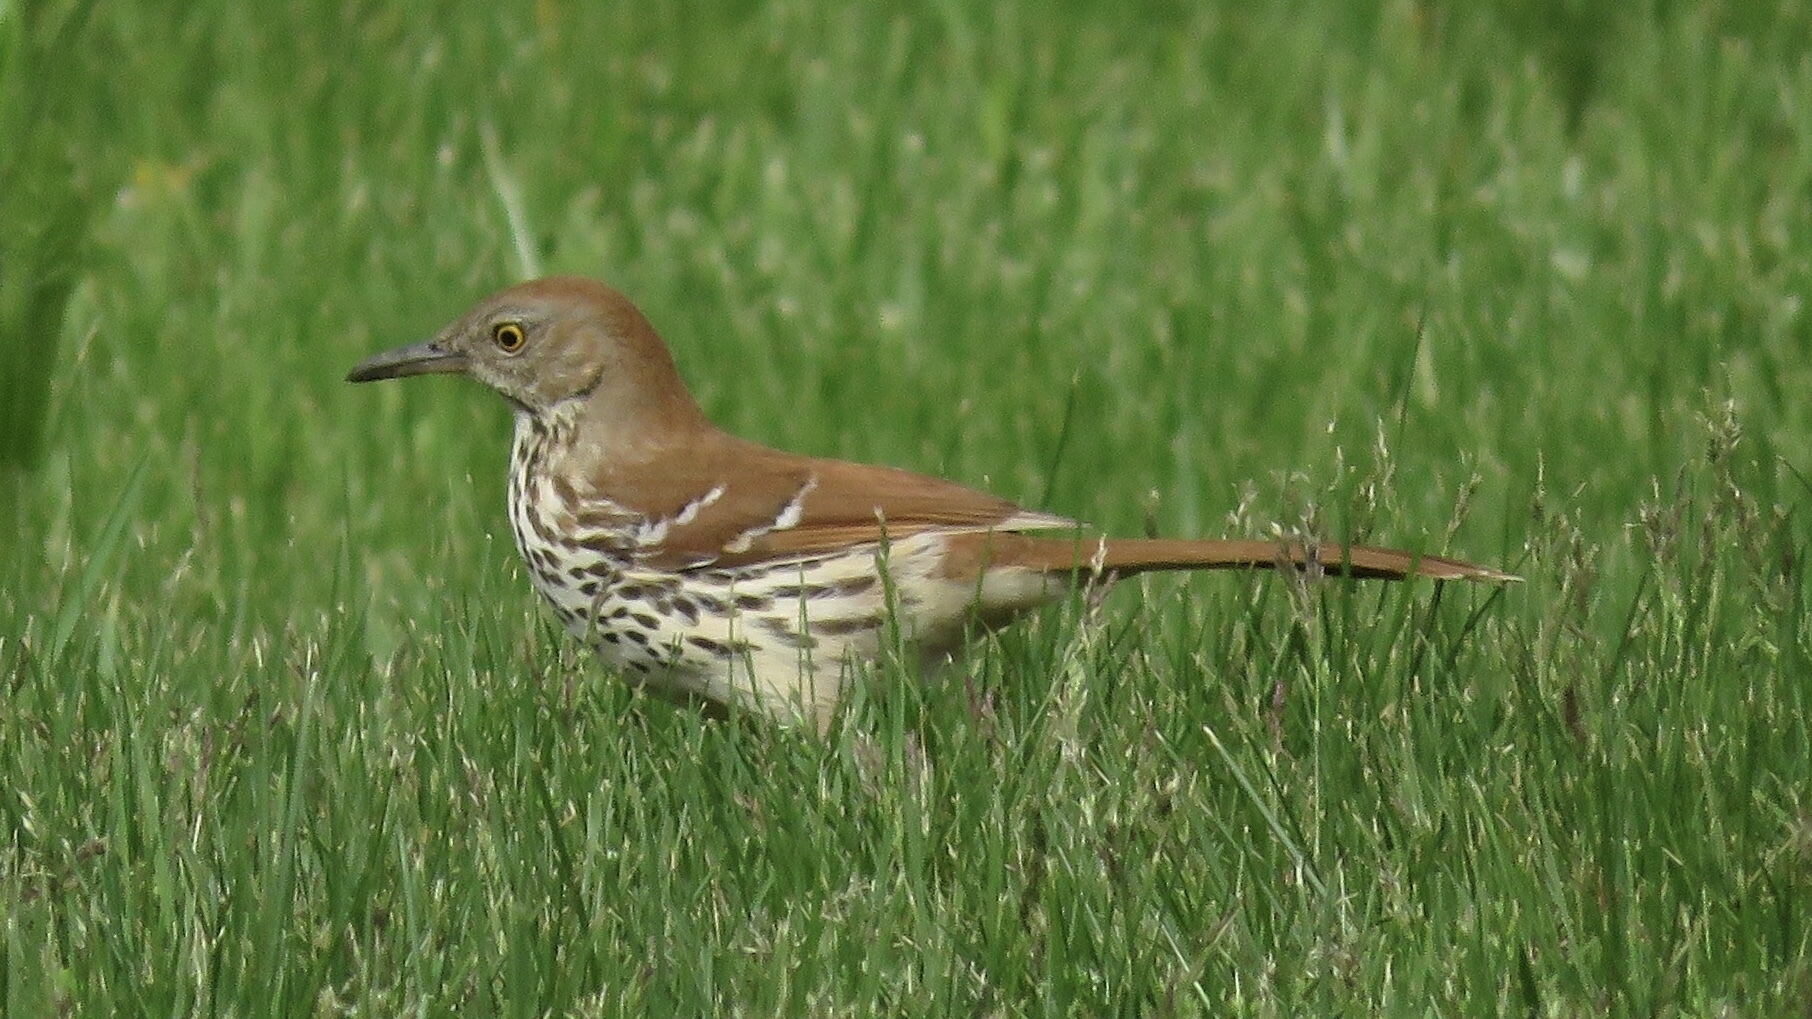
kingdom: Animalia
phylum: Chordata
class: Aves
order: Passeriformes
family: Mimidae
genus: Toxostoma
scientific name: Toxostoma rufum
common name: Brown thrasher
